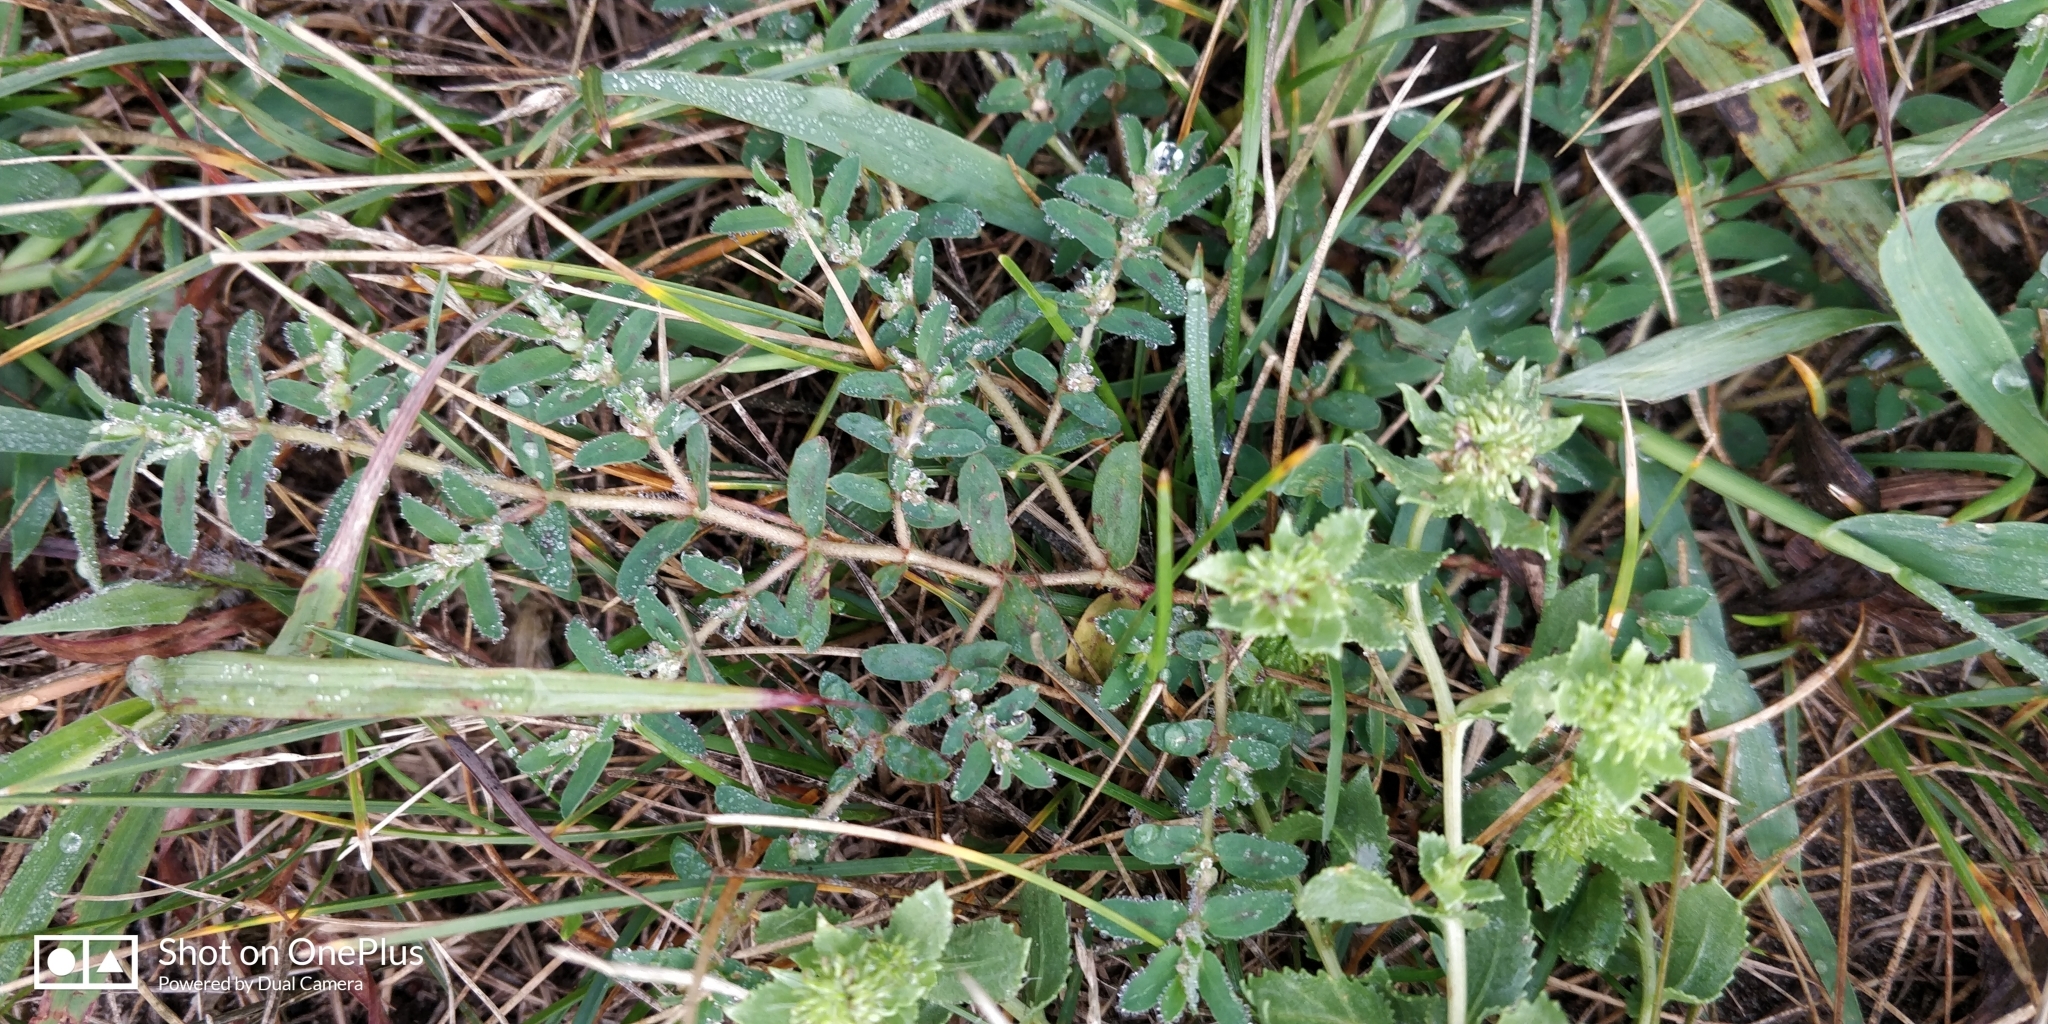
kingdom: Plantae
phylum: Tracheophyta
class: Magnoliopsida
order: Malpighiales
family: Euphorbiaceae
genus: Euphorbia
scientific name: Euphorbia maculata
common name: Spotted spurge
